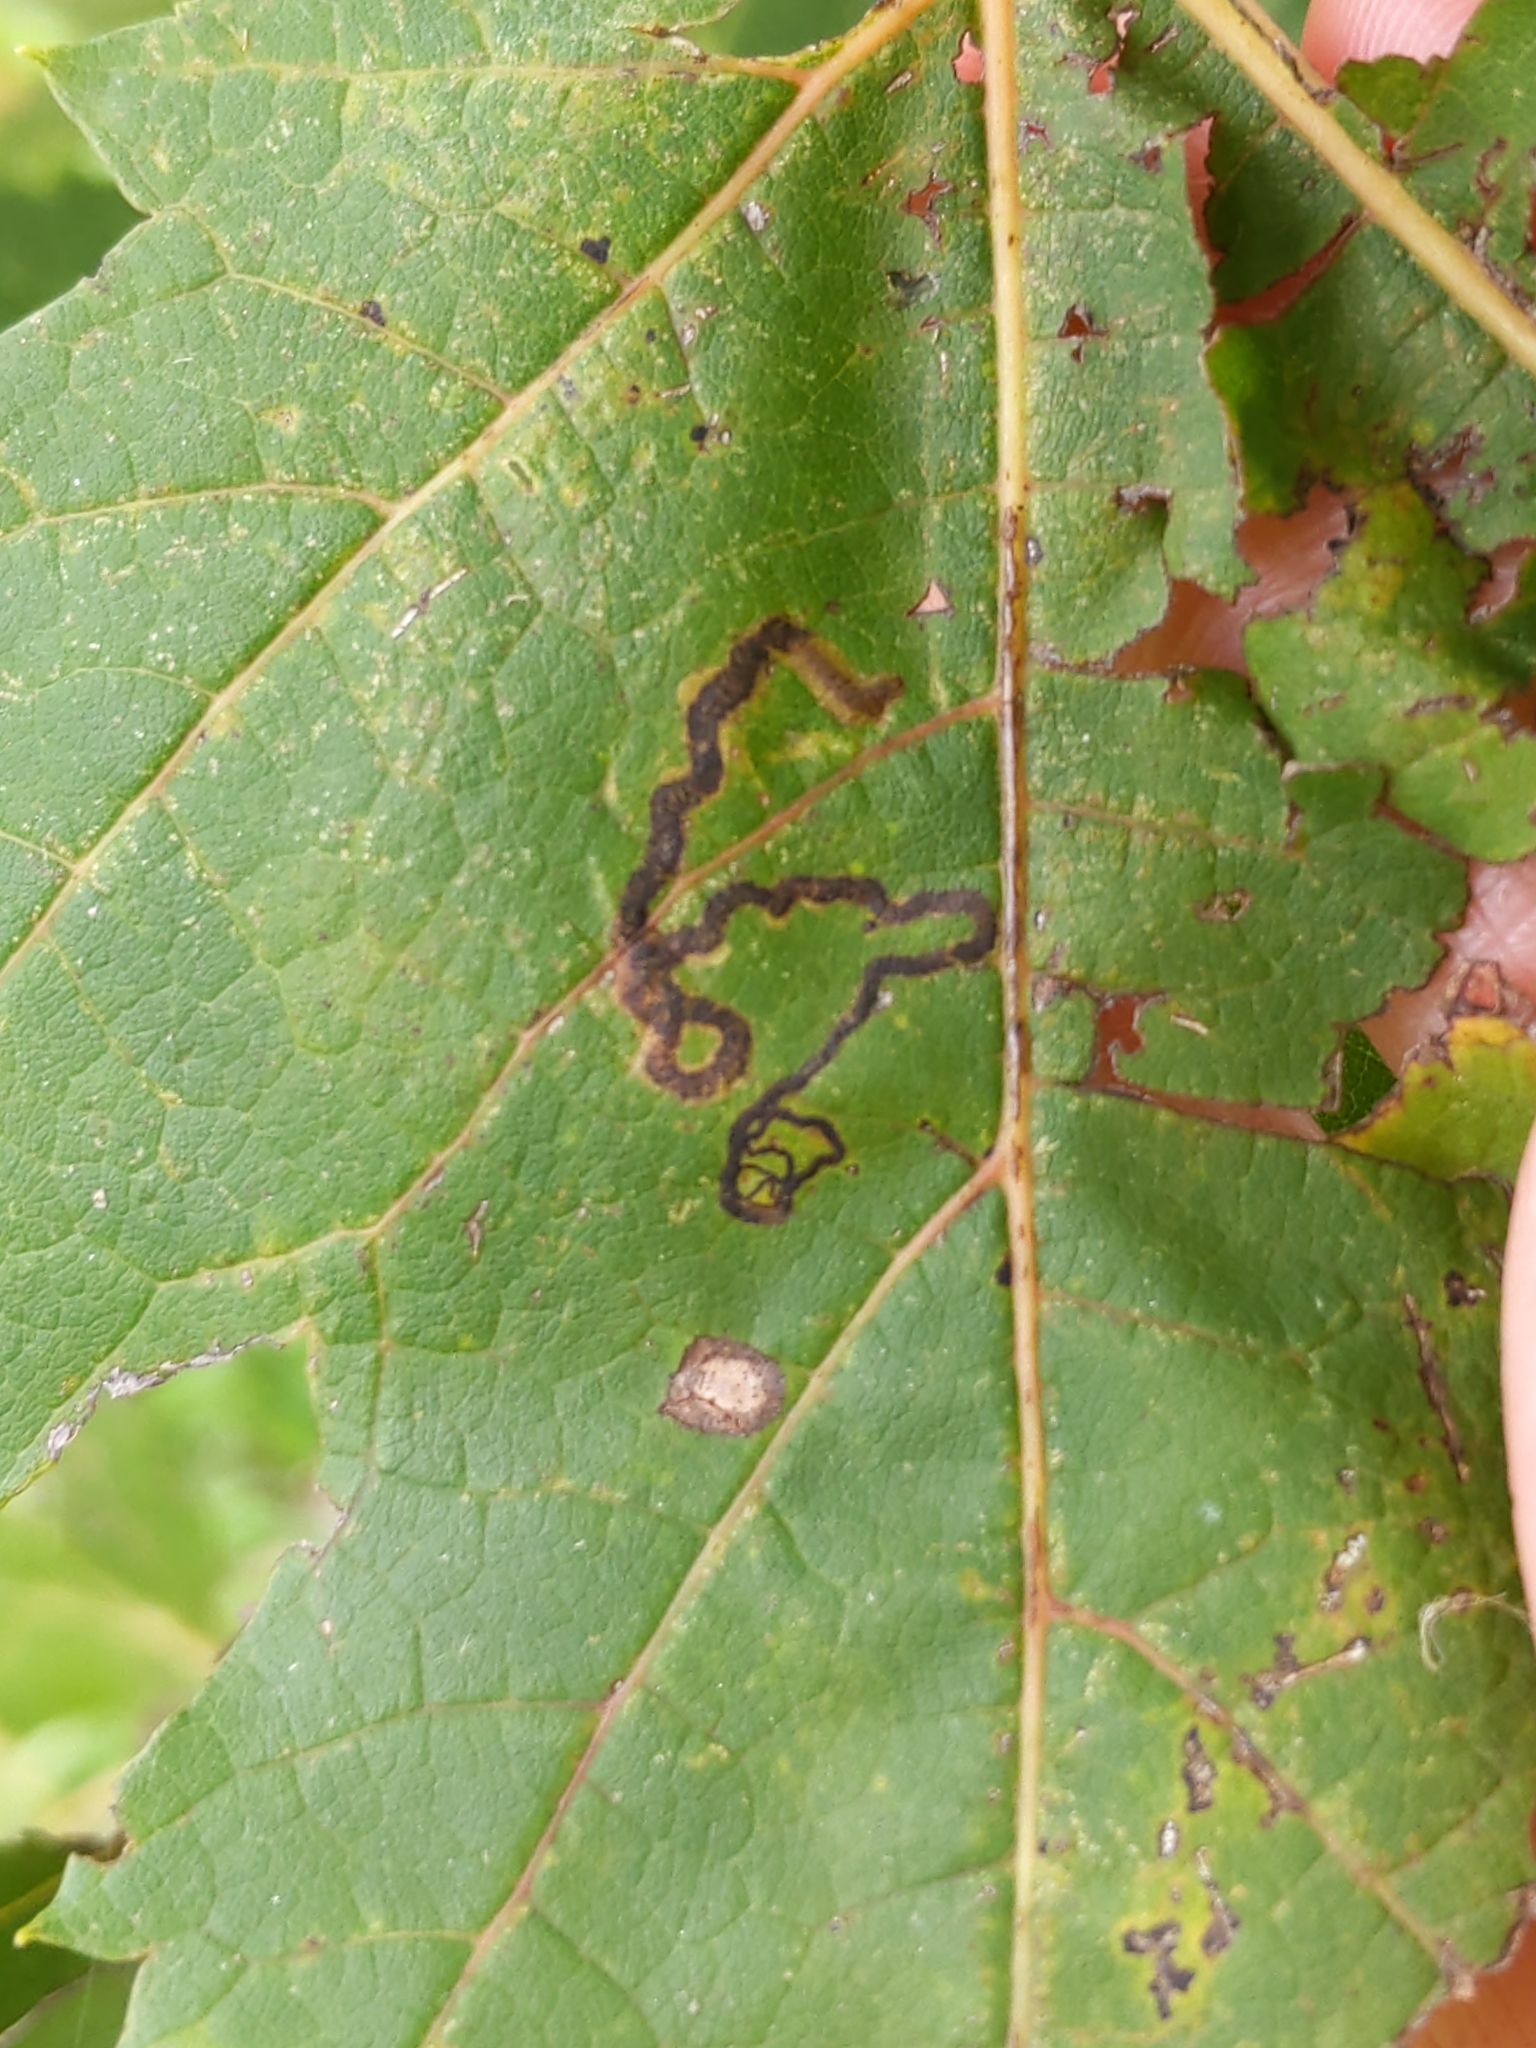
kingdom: Animalia
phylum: Arthropoda
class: Insecta
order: Lepidoptera
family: Nepticulidae
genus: Glaucolepis
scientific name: Glaucolepis saccharella
